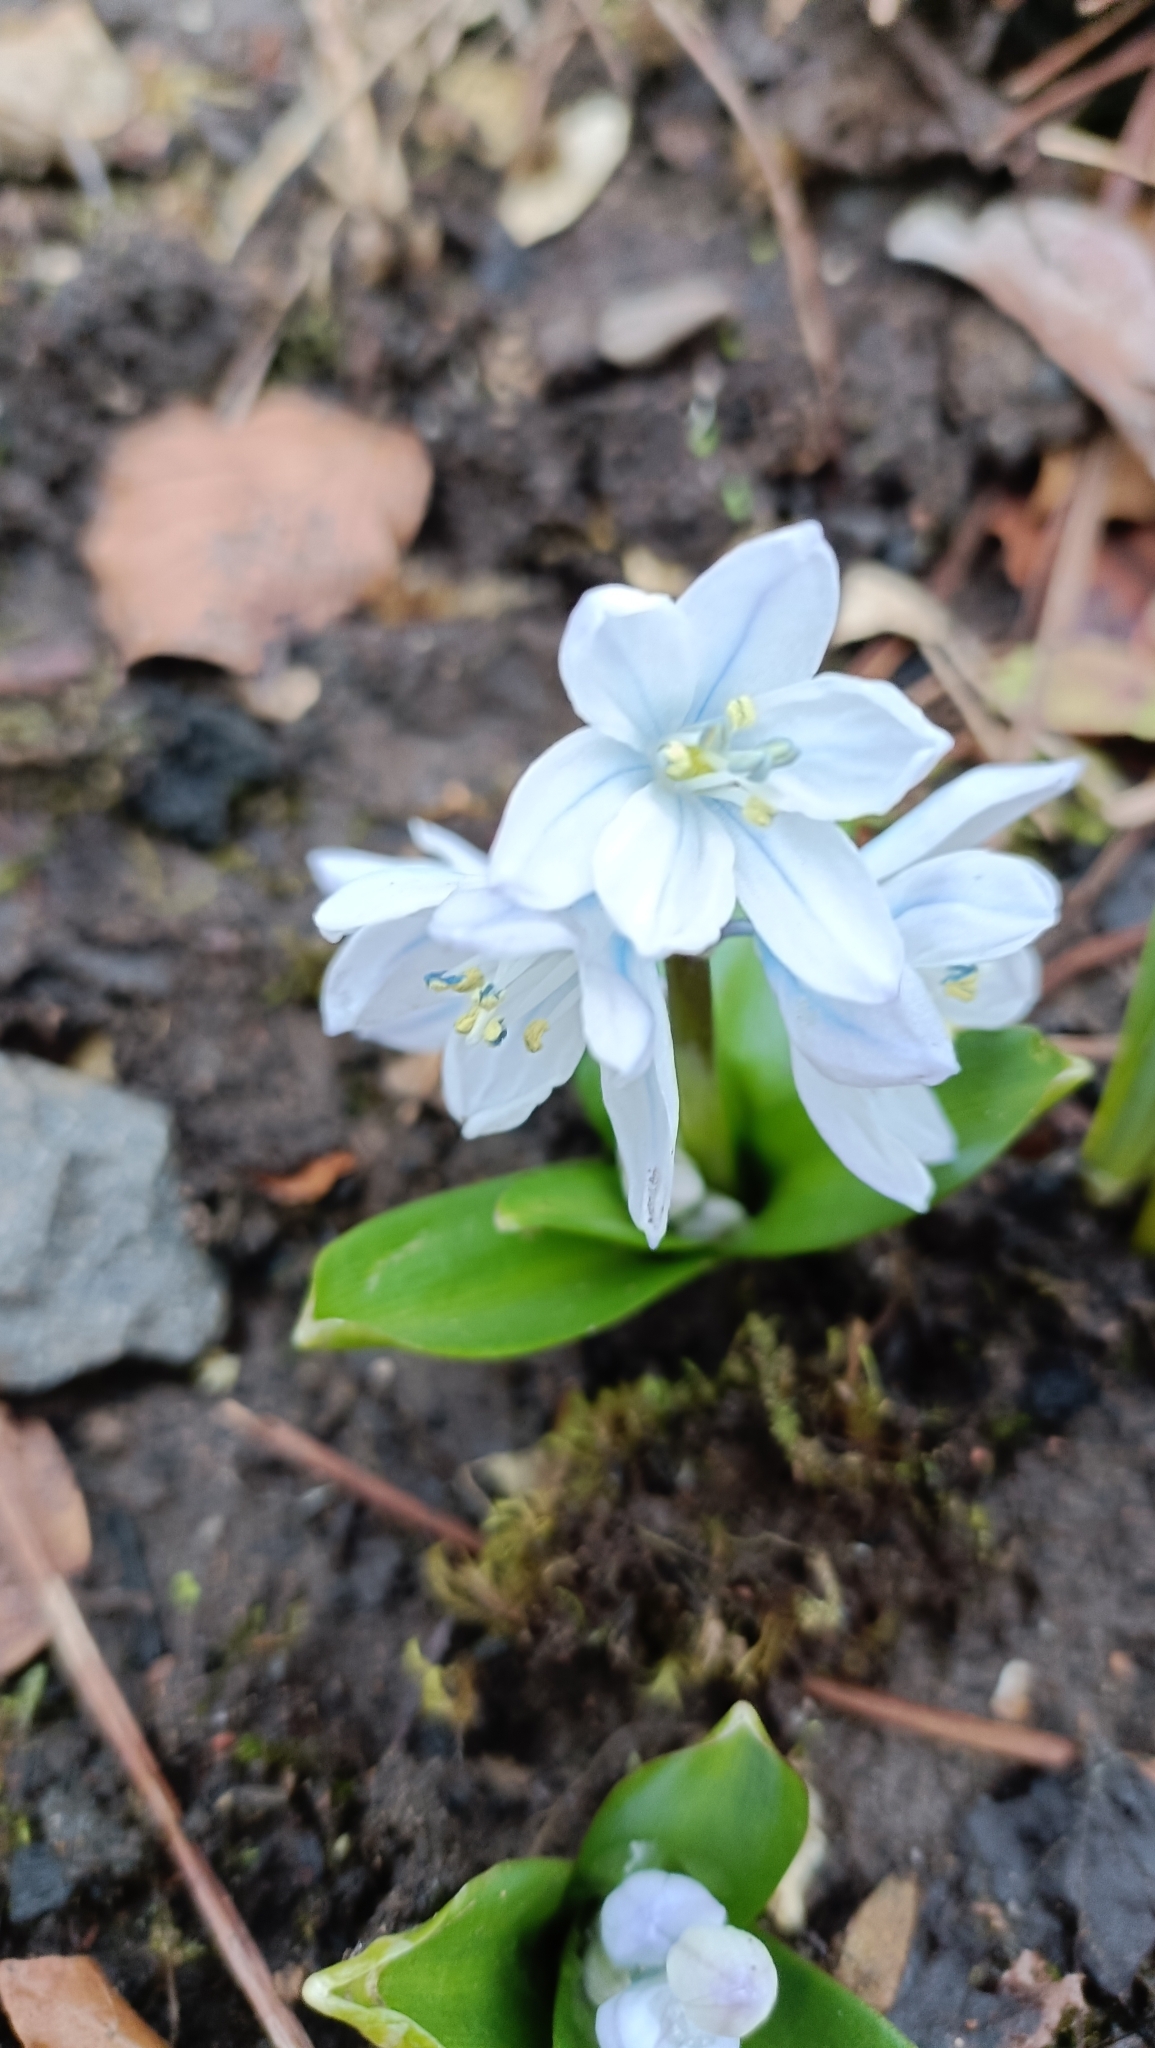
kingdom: Plantae
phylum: Tracheophyta
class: Liliopsida
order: Asparagales
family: Asparagaceae
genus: Scilla
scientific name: Scilla mischtschenkoana
